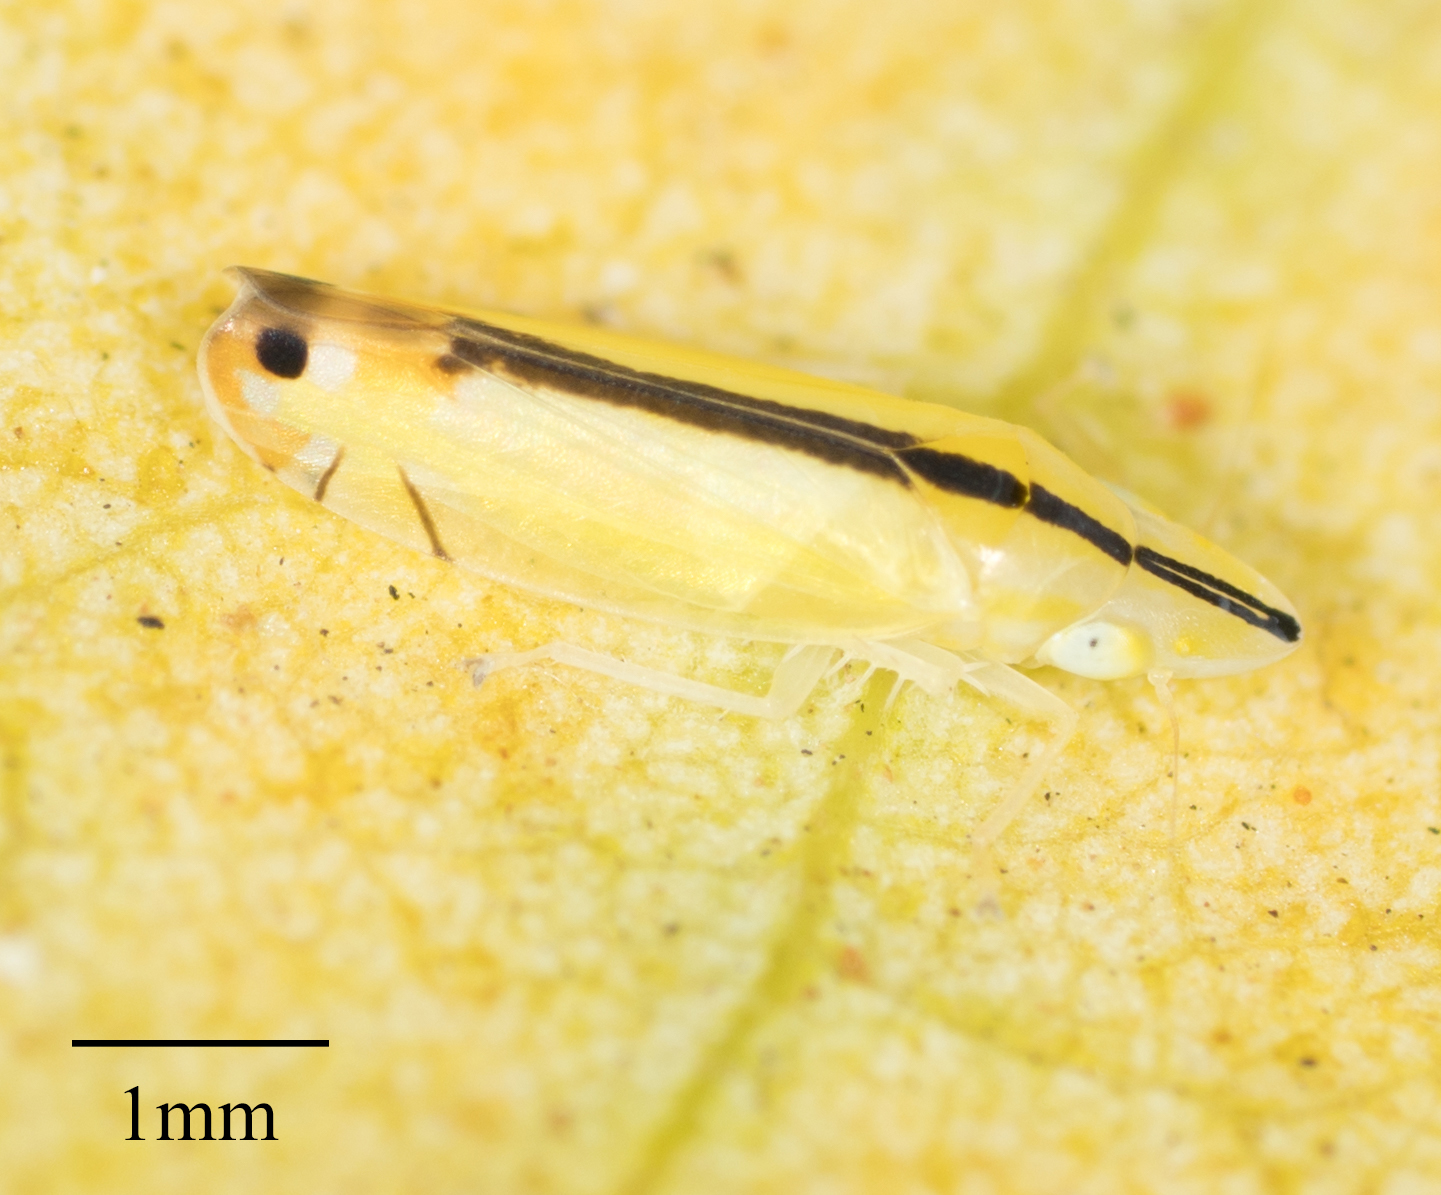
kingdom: Animalia
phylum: Arthropoda
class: Insecta
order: Hemiptera
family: Cicadellidae
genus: Sophonia
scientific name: Sophonia orientalis
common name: Two-spotted leafhopper
